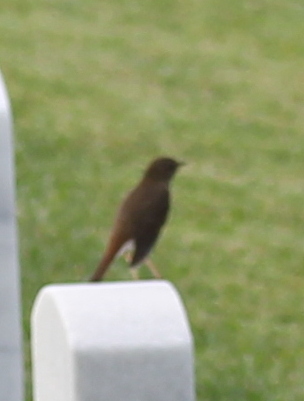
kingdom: Animalia
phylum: Chordata
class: Aves
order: Passeriformes
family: Turdidae
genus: Catharus
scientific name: Catharus guttatus
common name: Hermit thrush
